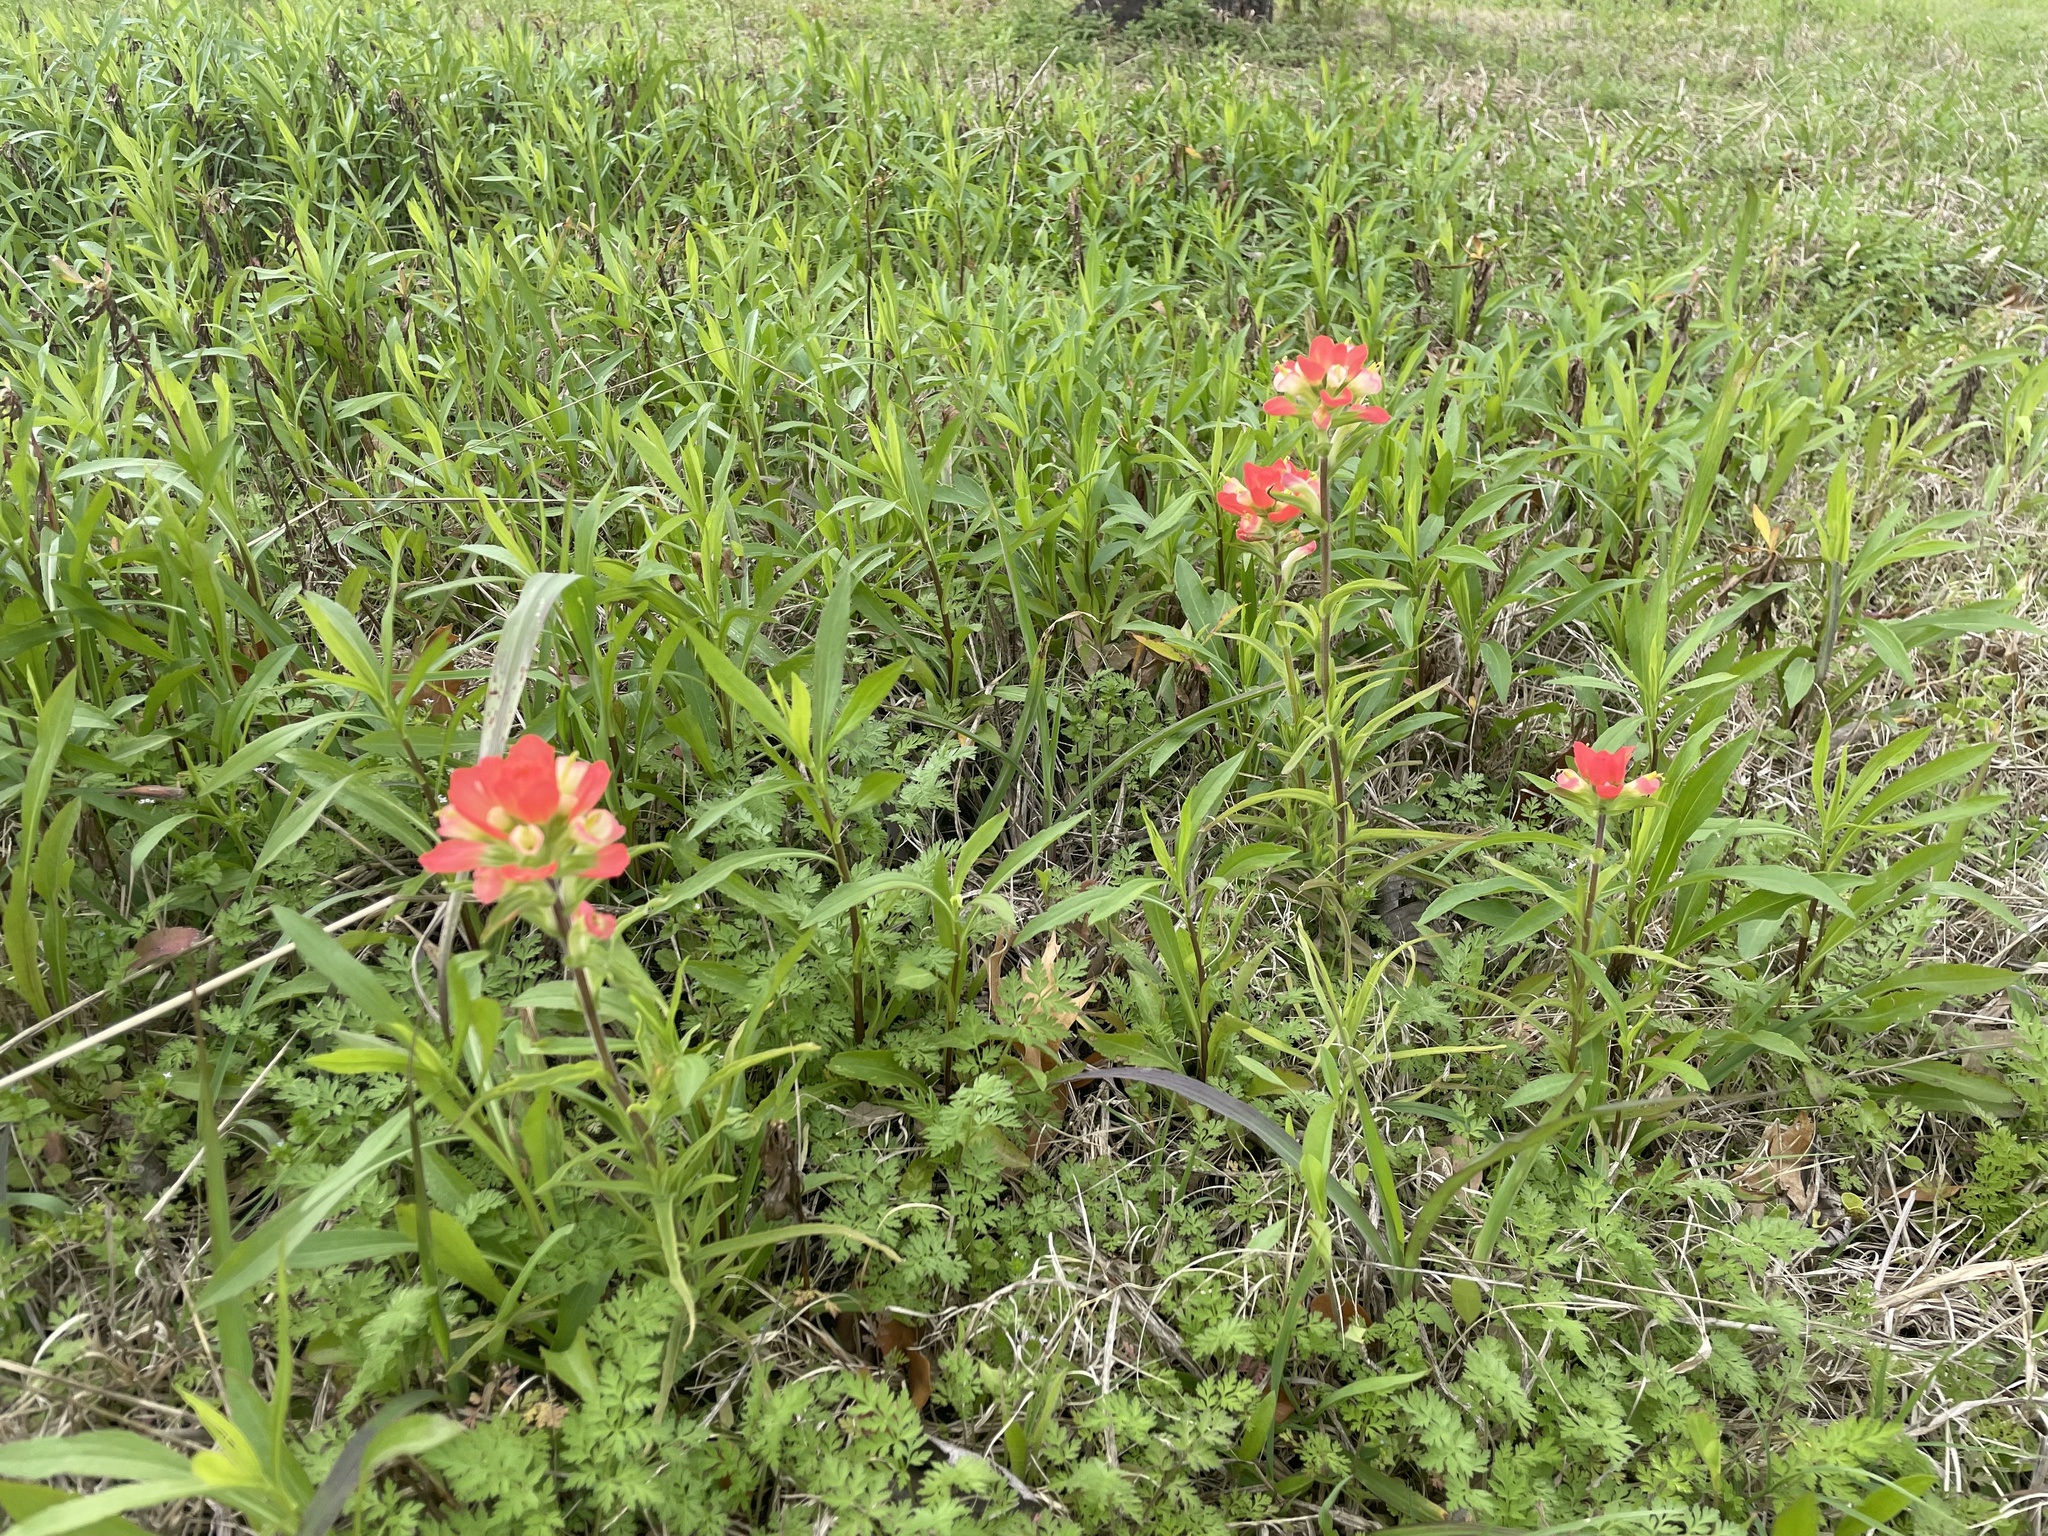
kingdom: Plantae
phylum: Tracheophyta
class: Magnoliopsida
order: Lamiales
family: Orobanchaceae
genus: Castilleja
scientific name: Castilleja indivisa
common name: Texas paintbrush
